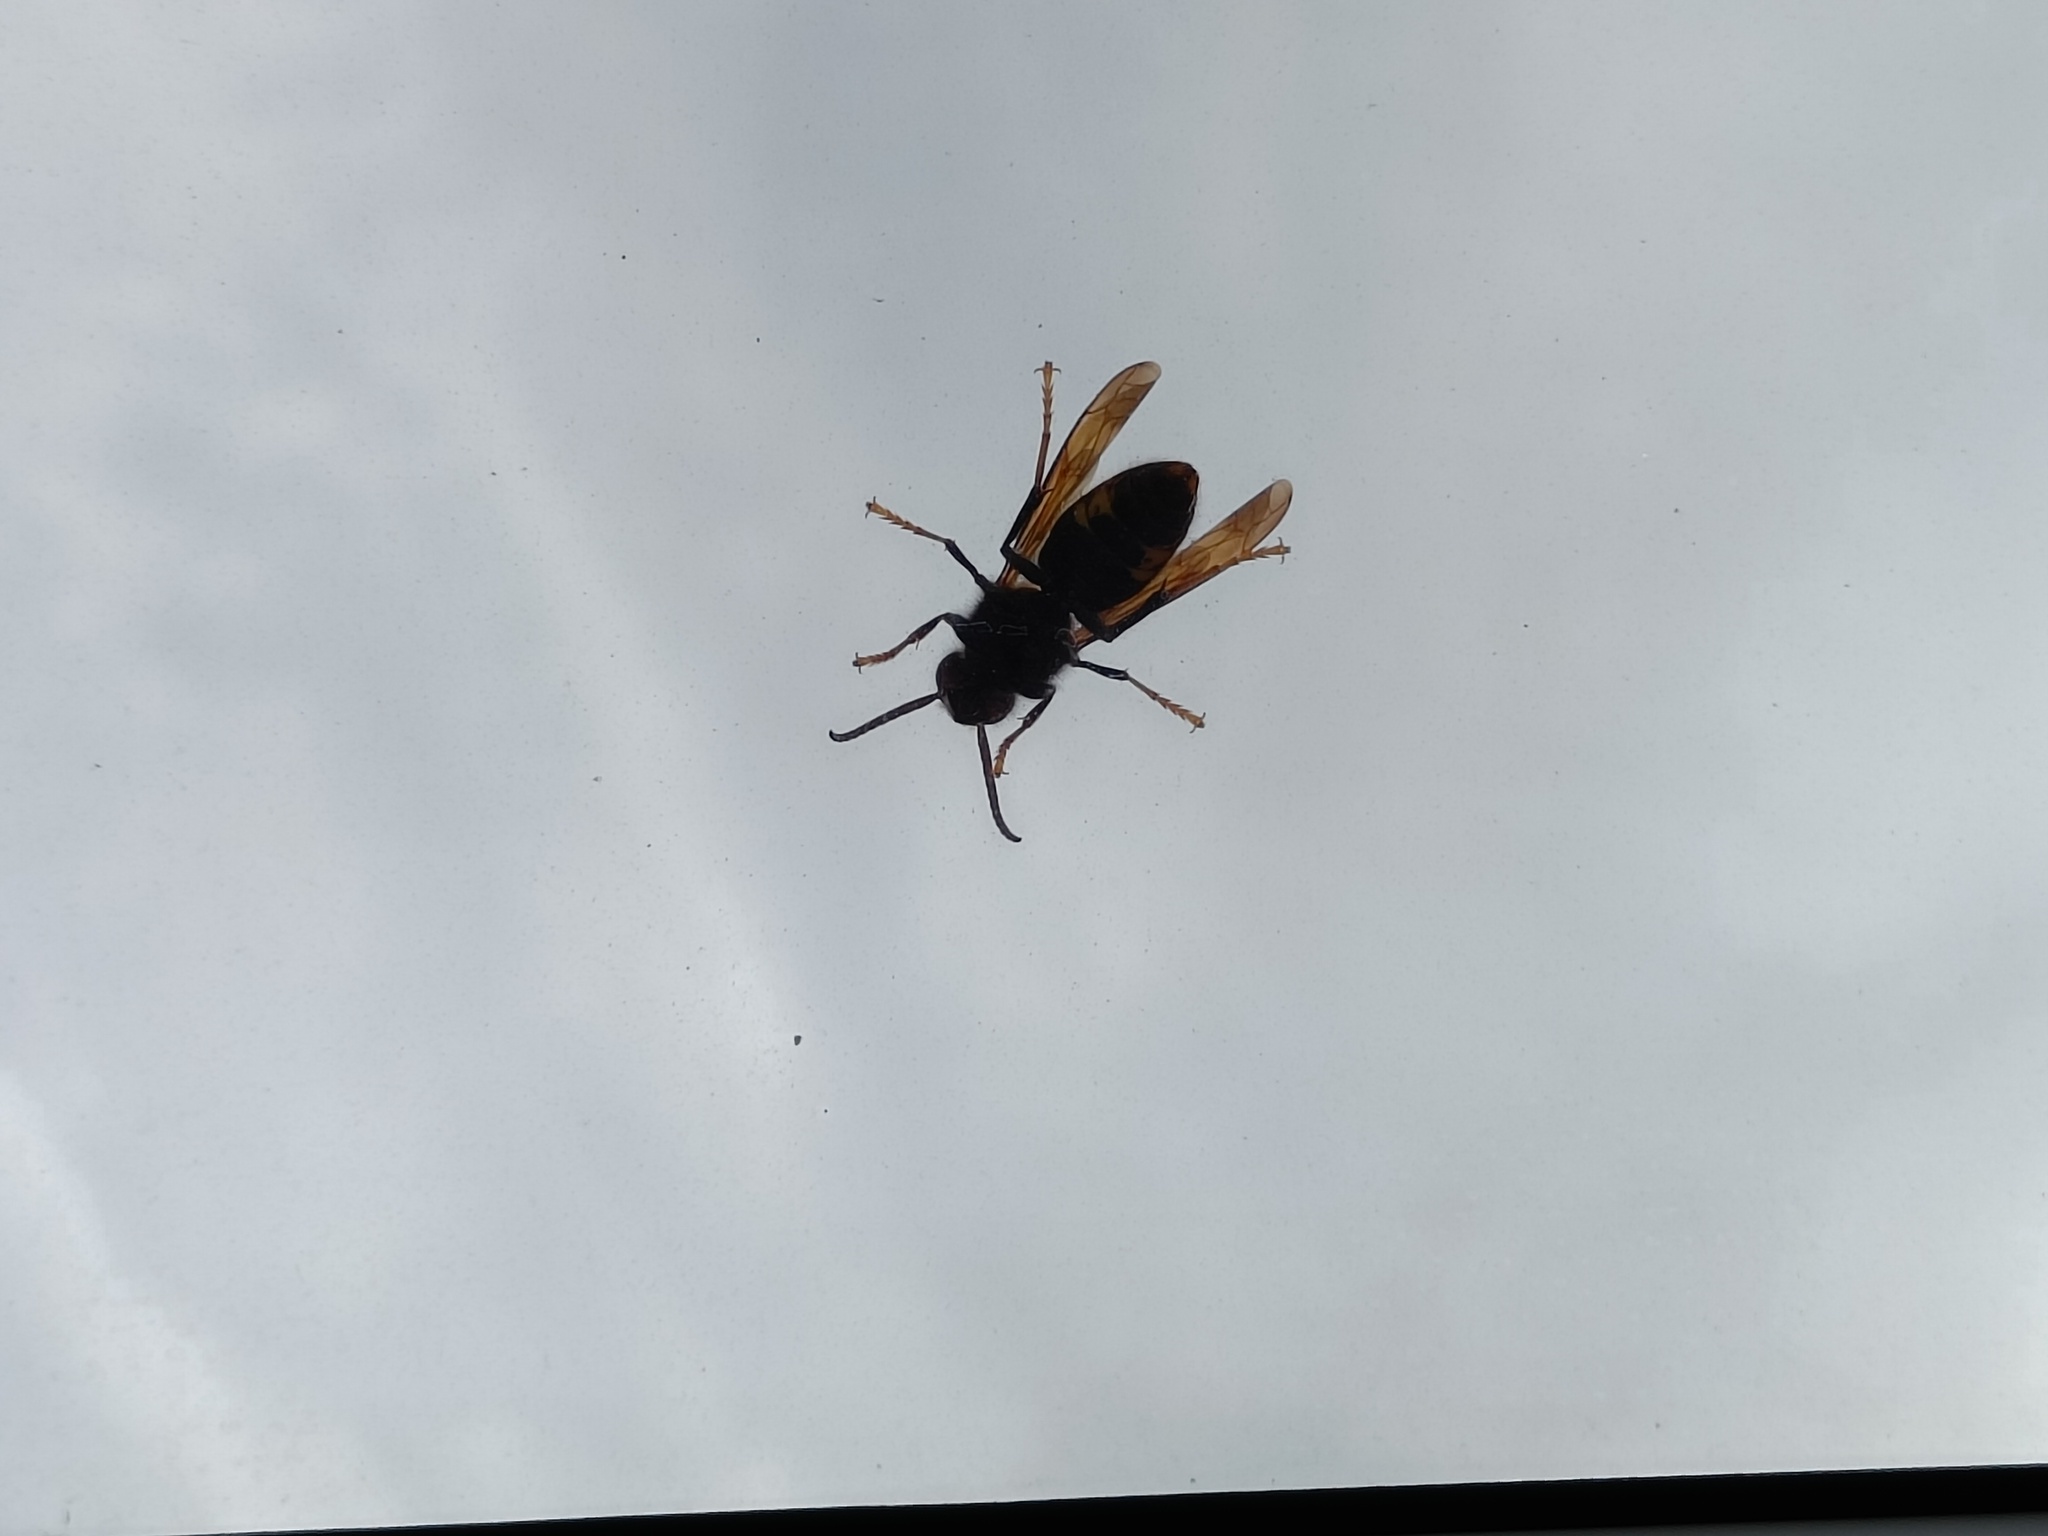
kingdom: Animalia
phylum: Arthropoda
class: Insecta
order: Hymenoptera
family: Vespidae
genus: Vespa
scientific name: Vespa velutina
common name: Asian hornet
